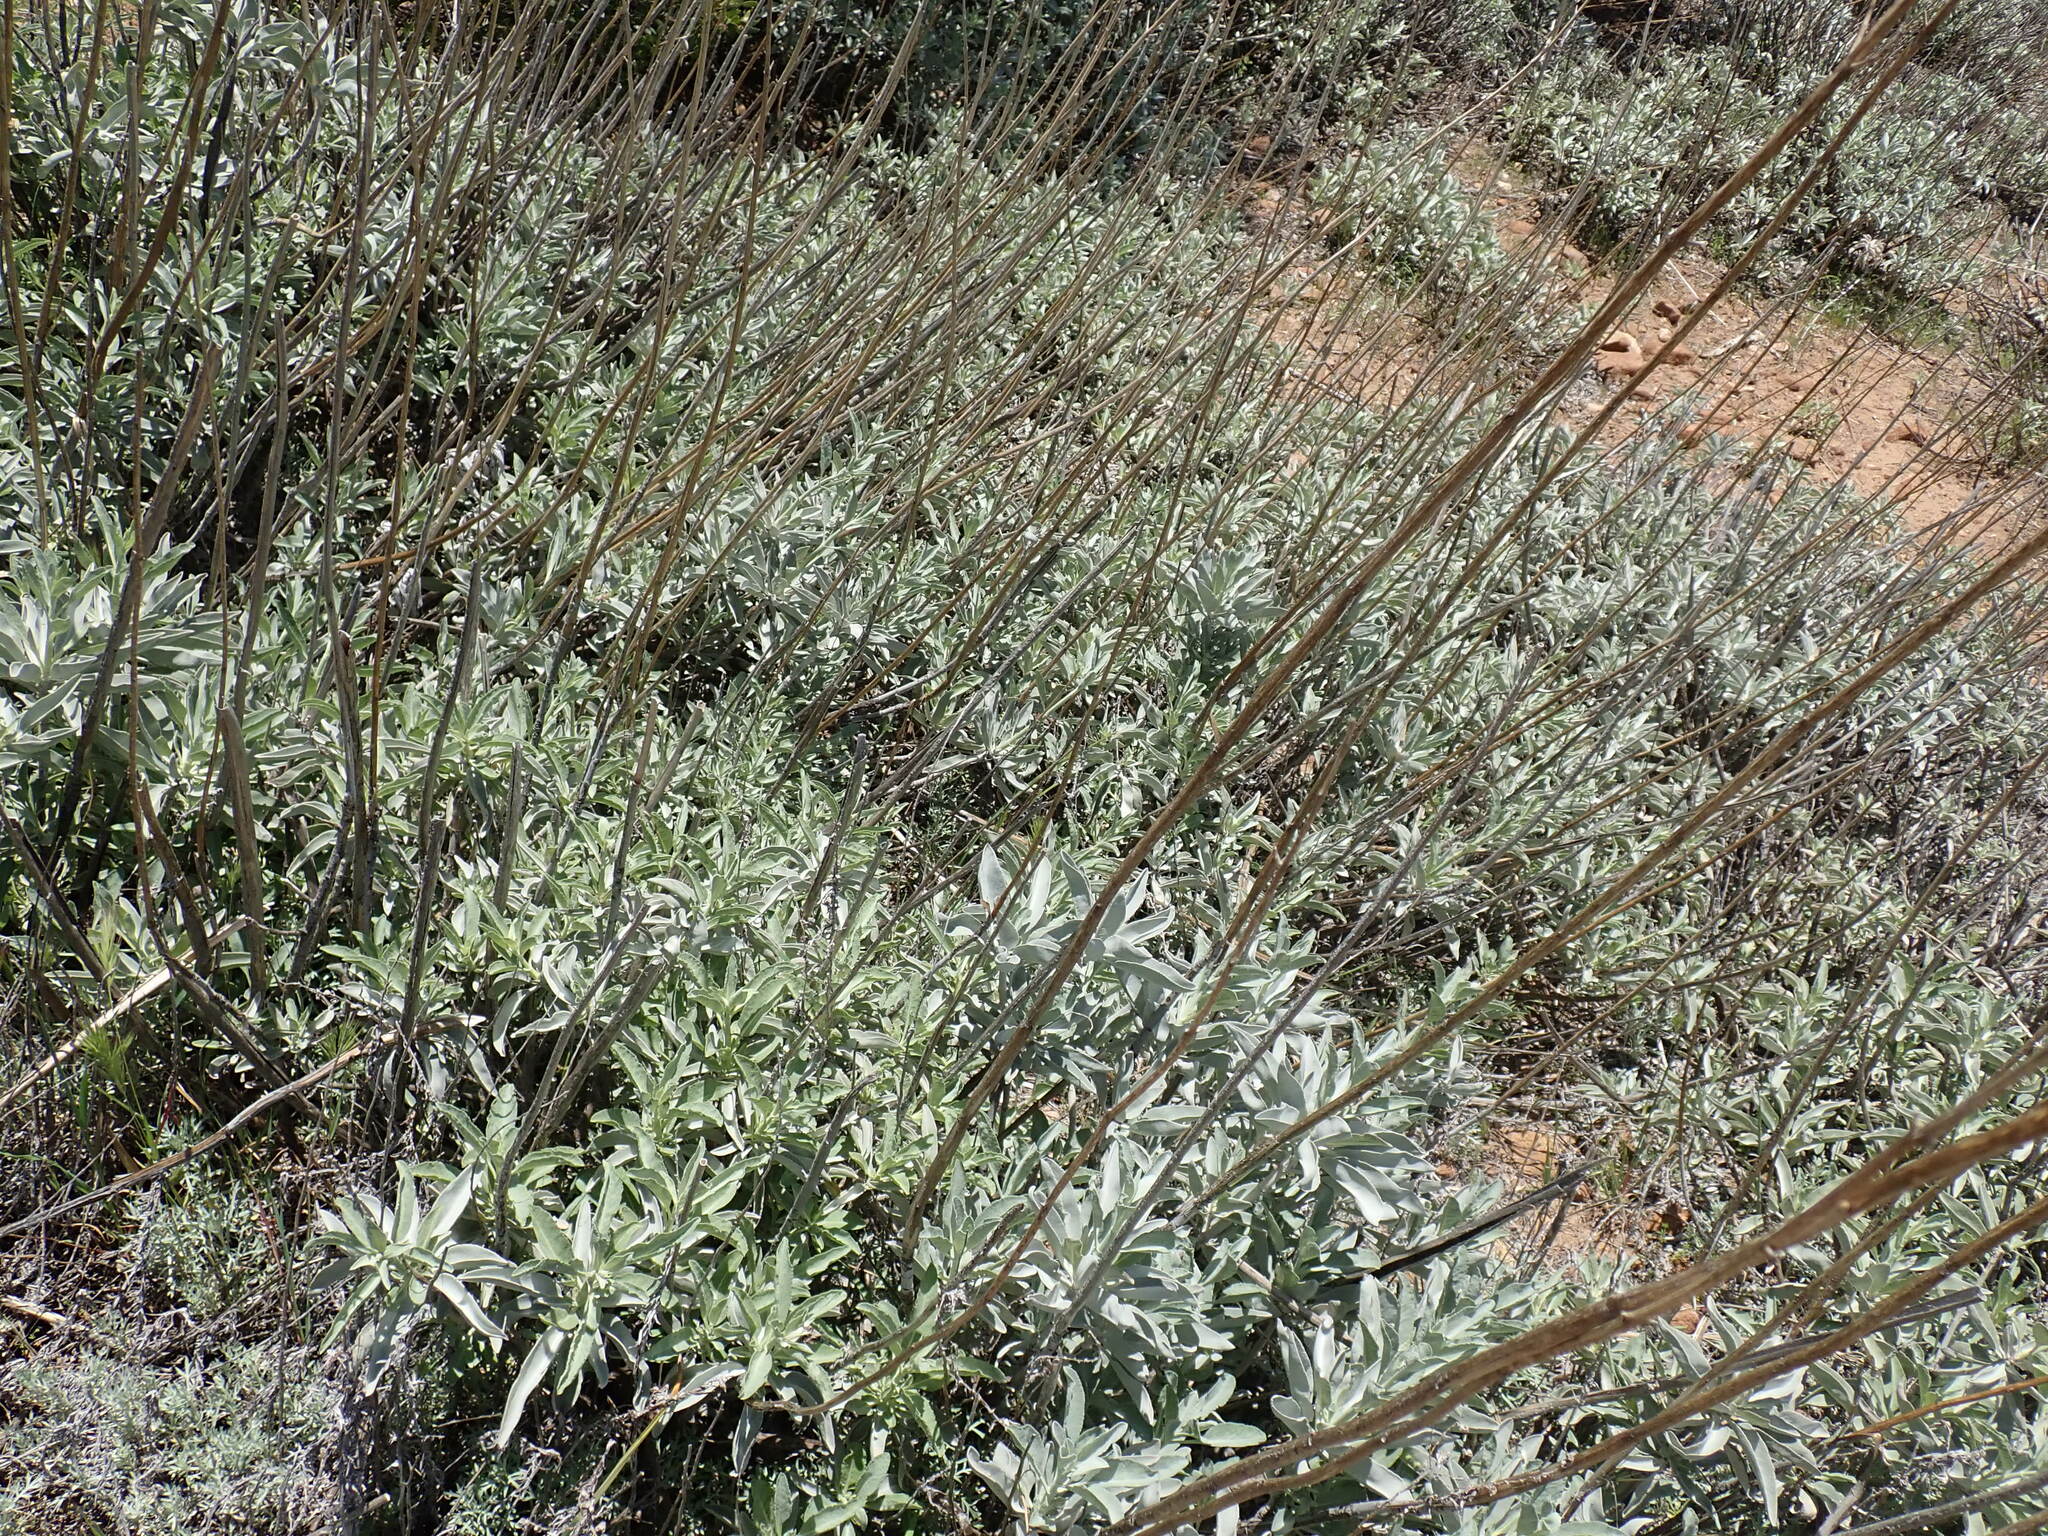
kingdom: Plantae
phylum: Tracheophyta
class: Magnoliopsida
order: Lamiales
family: Lamiaceae
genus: Salvia
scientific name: Salvia apiana
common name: White sage
